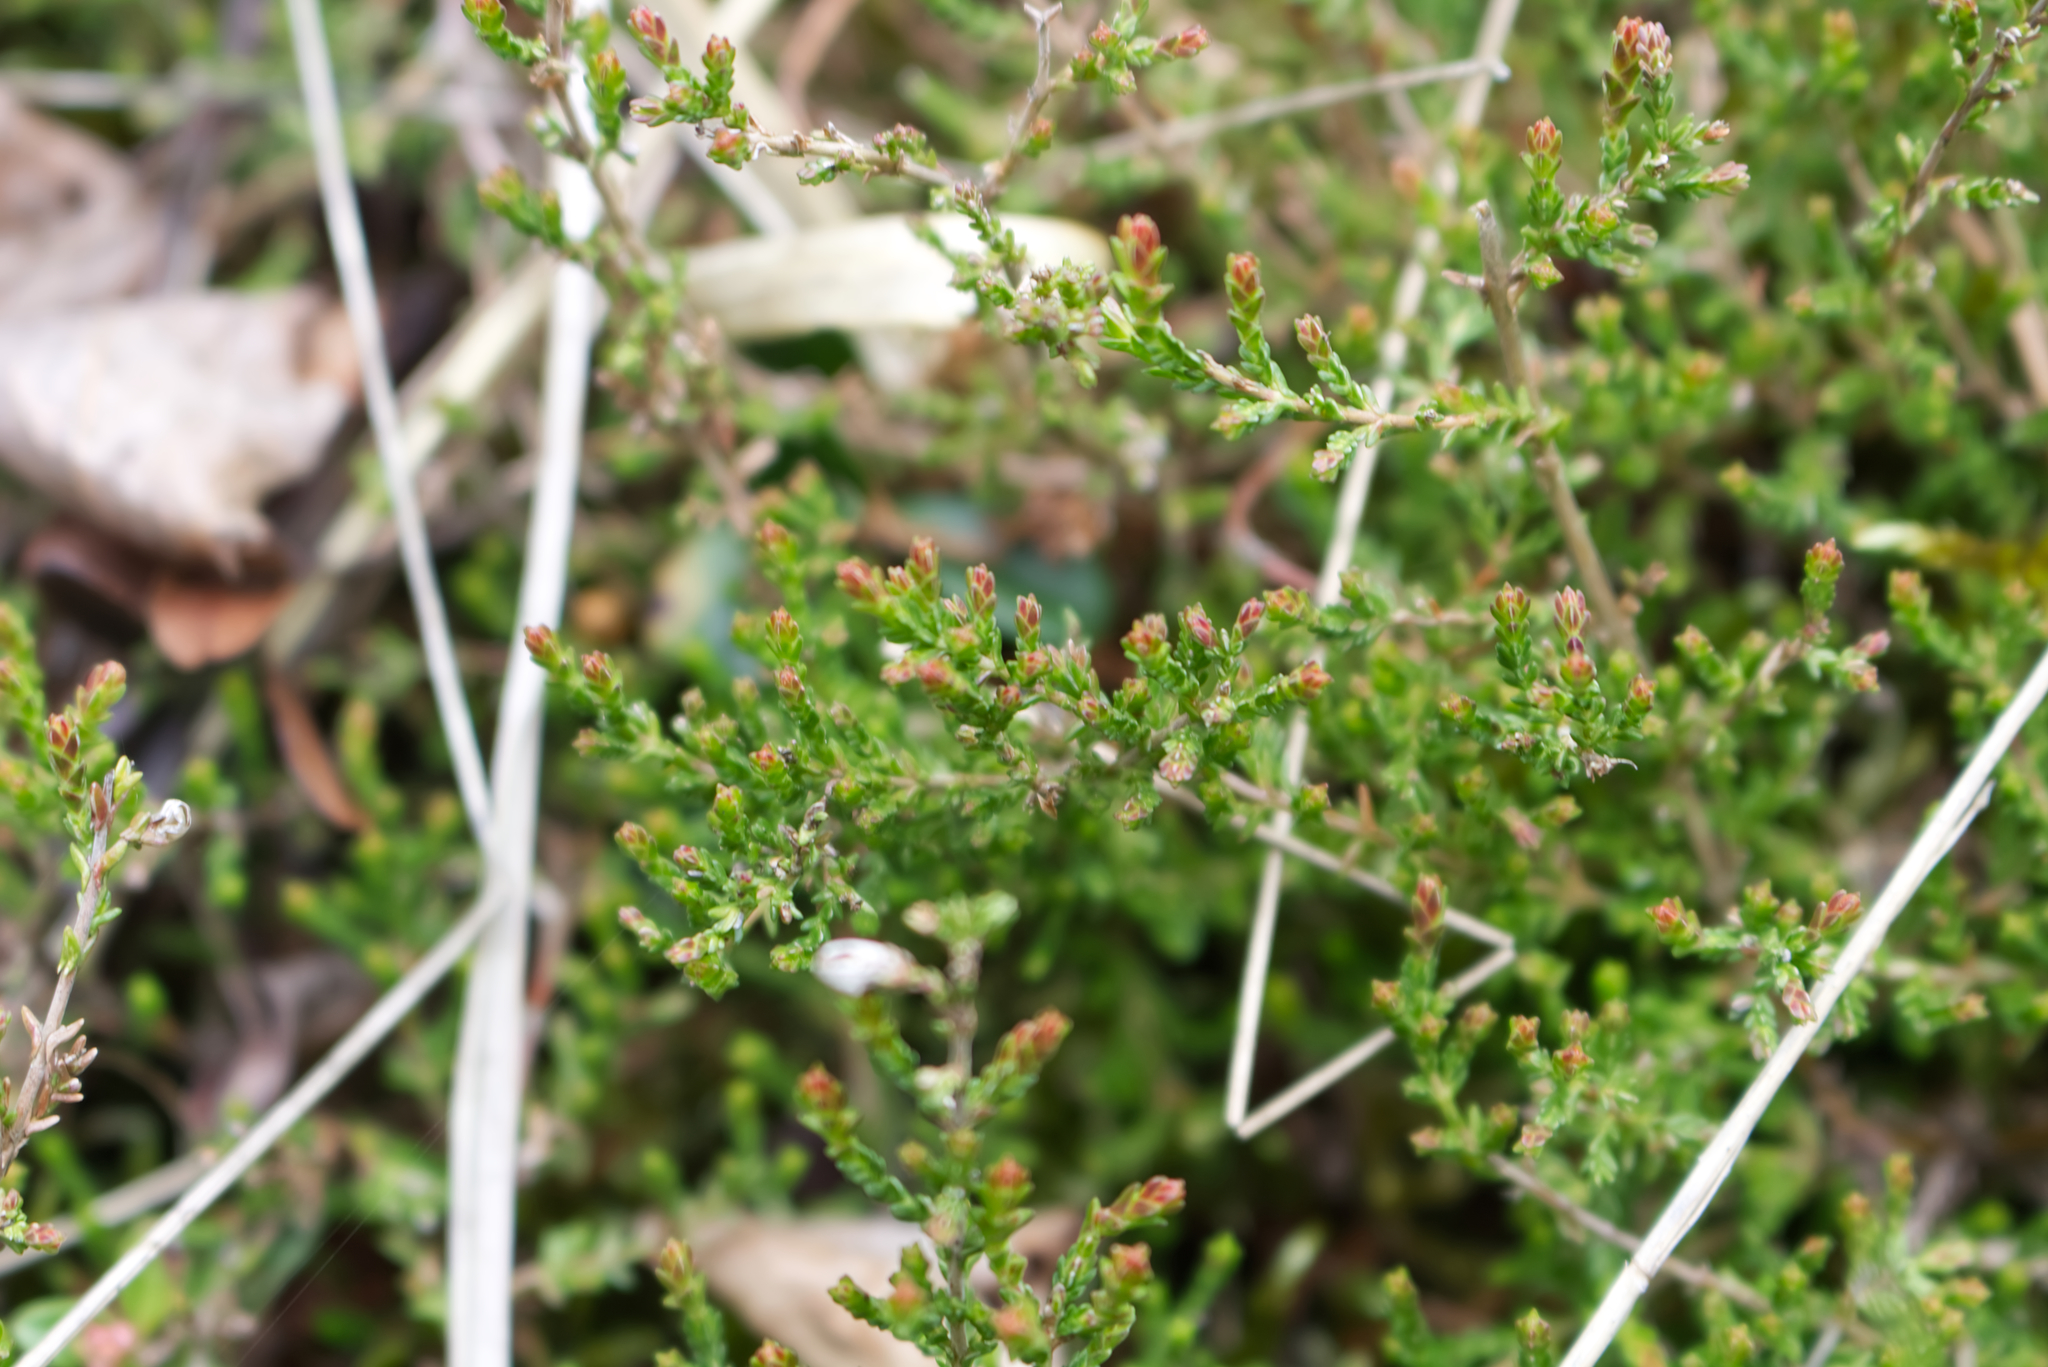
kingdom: Plantae
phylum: Tracheophyta
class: Magnoliopsida
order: Ericales
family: Ericaceae
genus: Calluna
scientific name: Calluna vulgaris
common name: Heather
